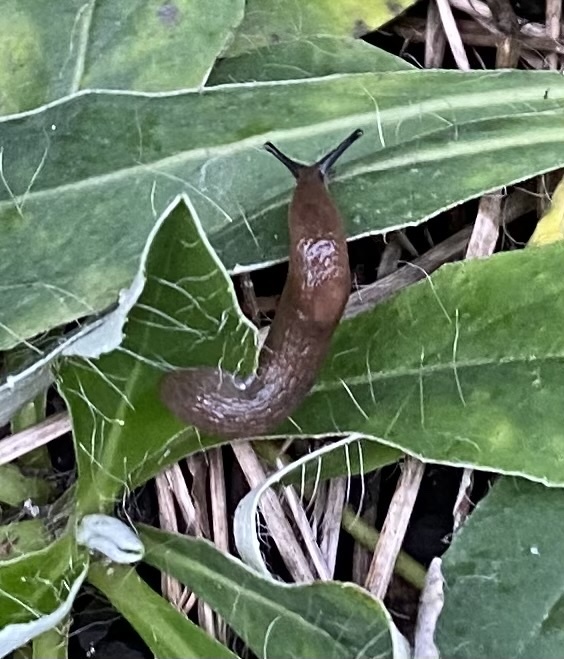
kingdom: Animalia
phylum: Mollusca
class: Gastropoda
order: Stylommatophora
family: Agriolimacidae
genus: Deroceras
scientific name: Deroceras
